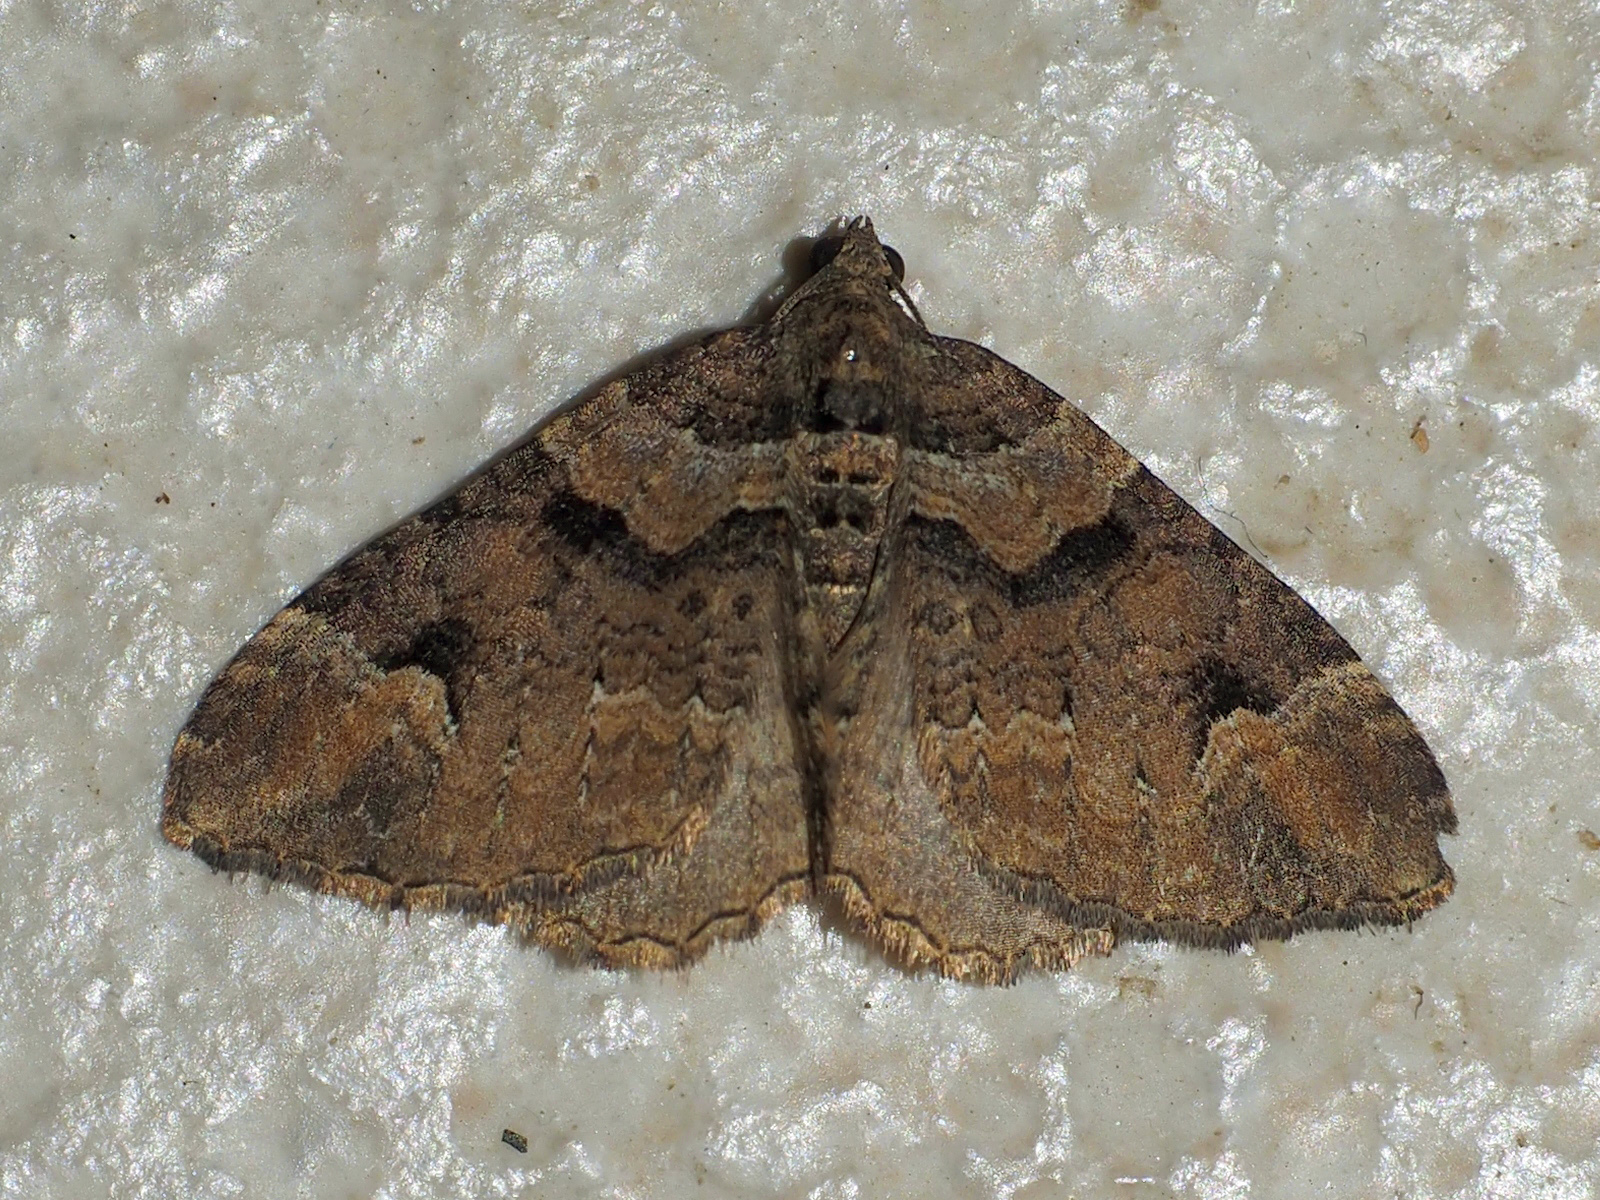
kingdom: Animalia
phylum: Arthropoda
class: Insecta
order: Lepidoptera
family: Geometridae
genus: Catarhoe
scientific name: Catarhoe basochesiata
